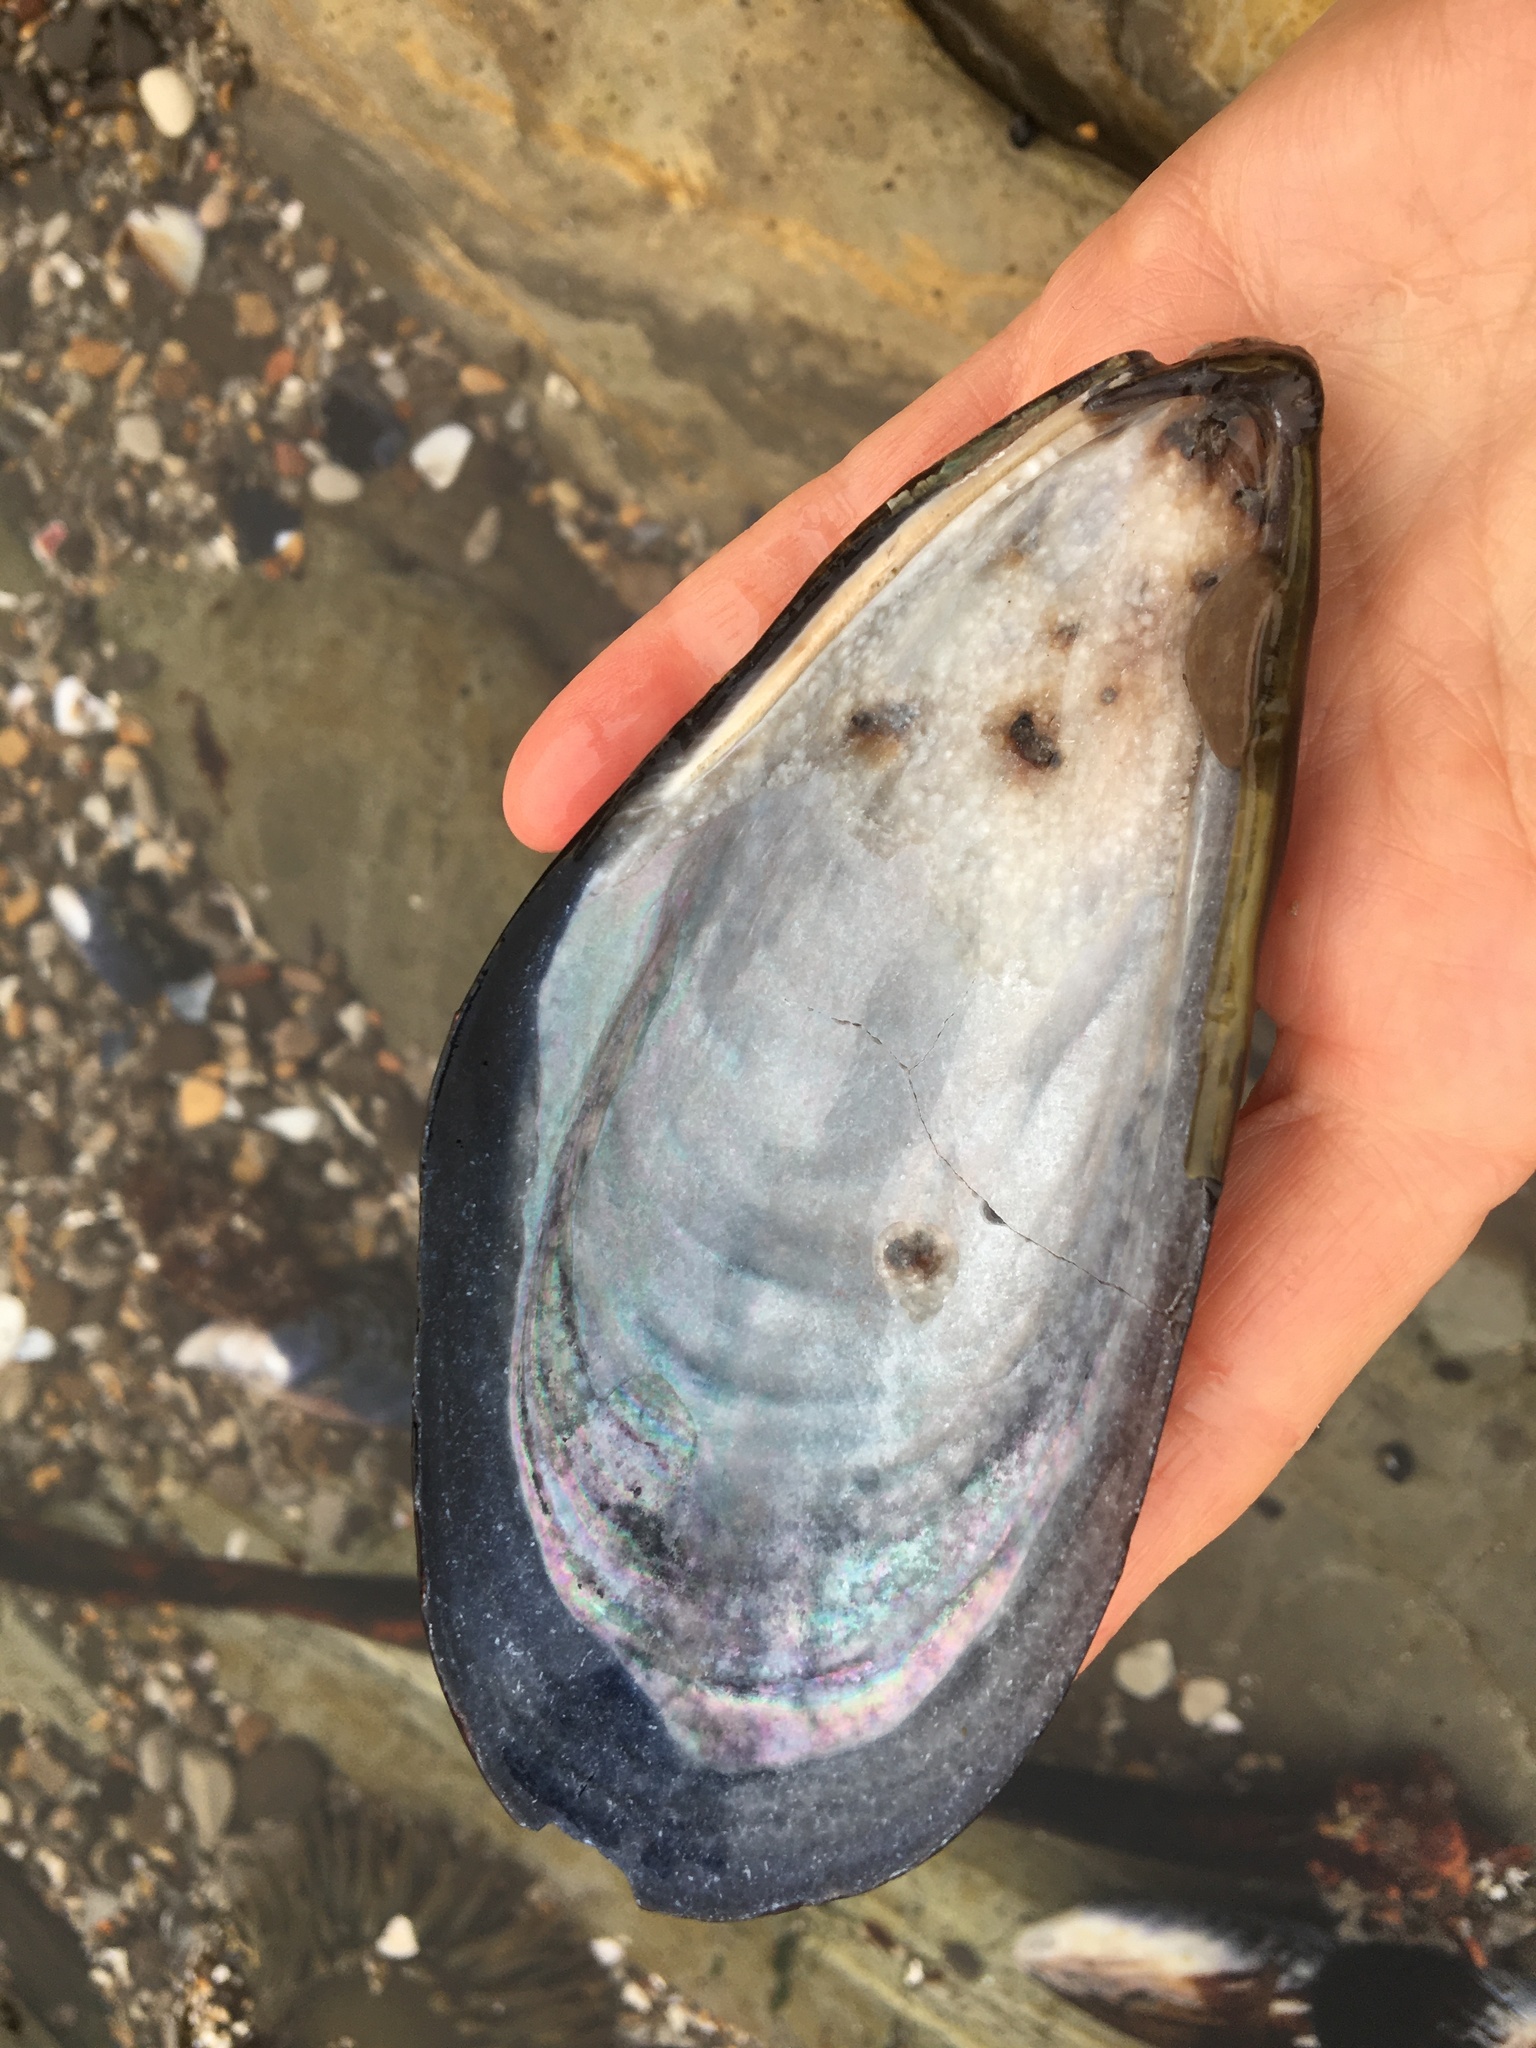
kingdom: Animalia
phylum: Mollusca
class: Bivalvia
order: Mytilida
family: Mytilidae
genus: Mytilus
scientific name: Mytilus californianus
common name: California mussel
